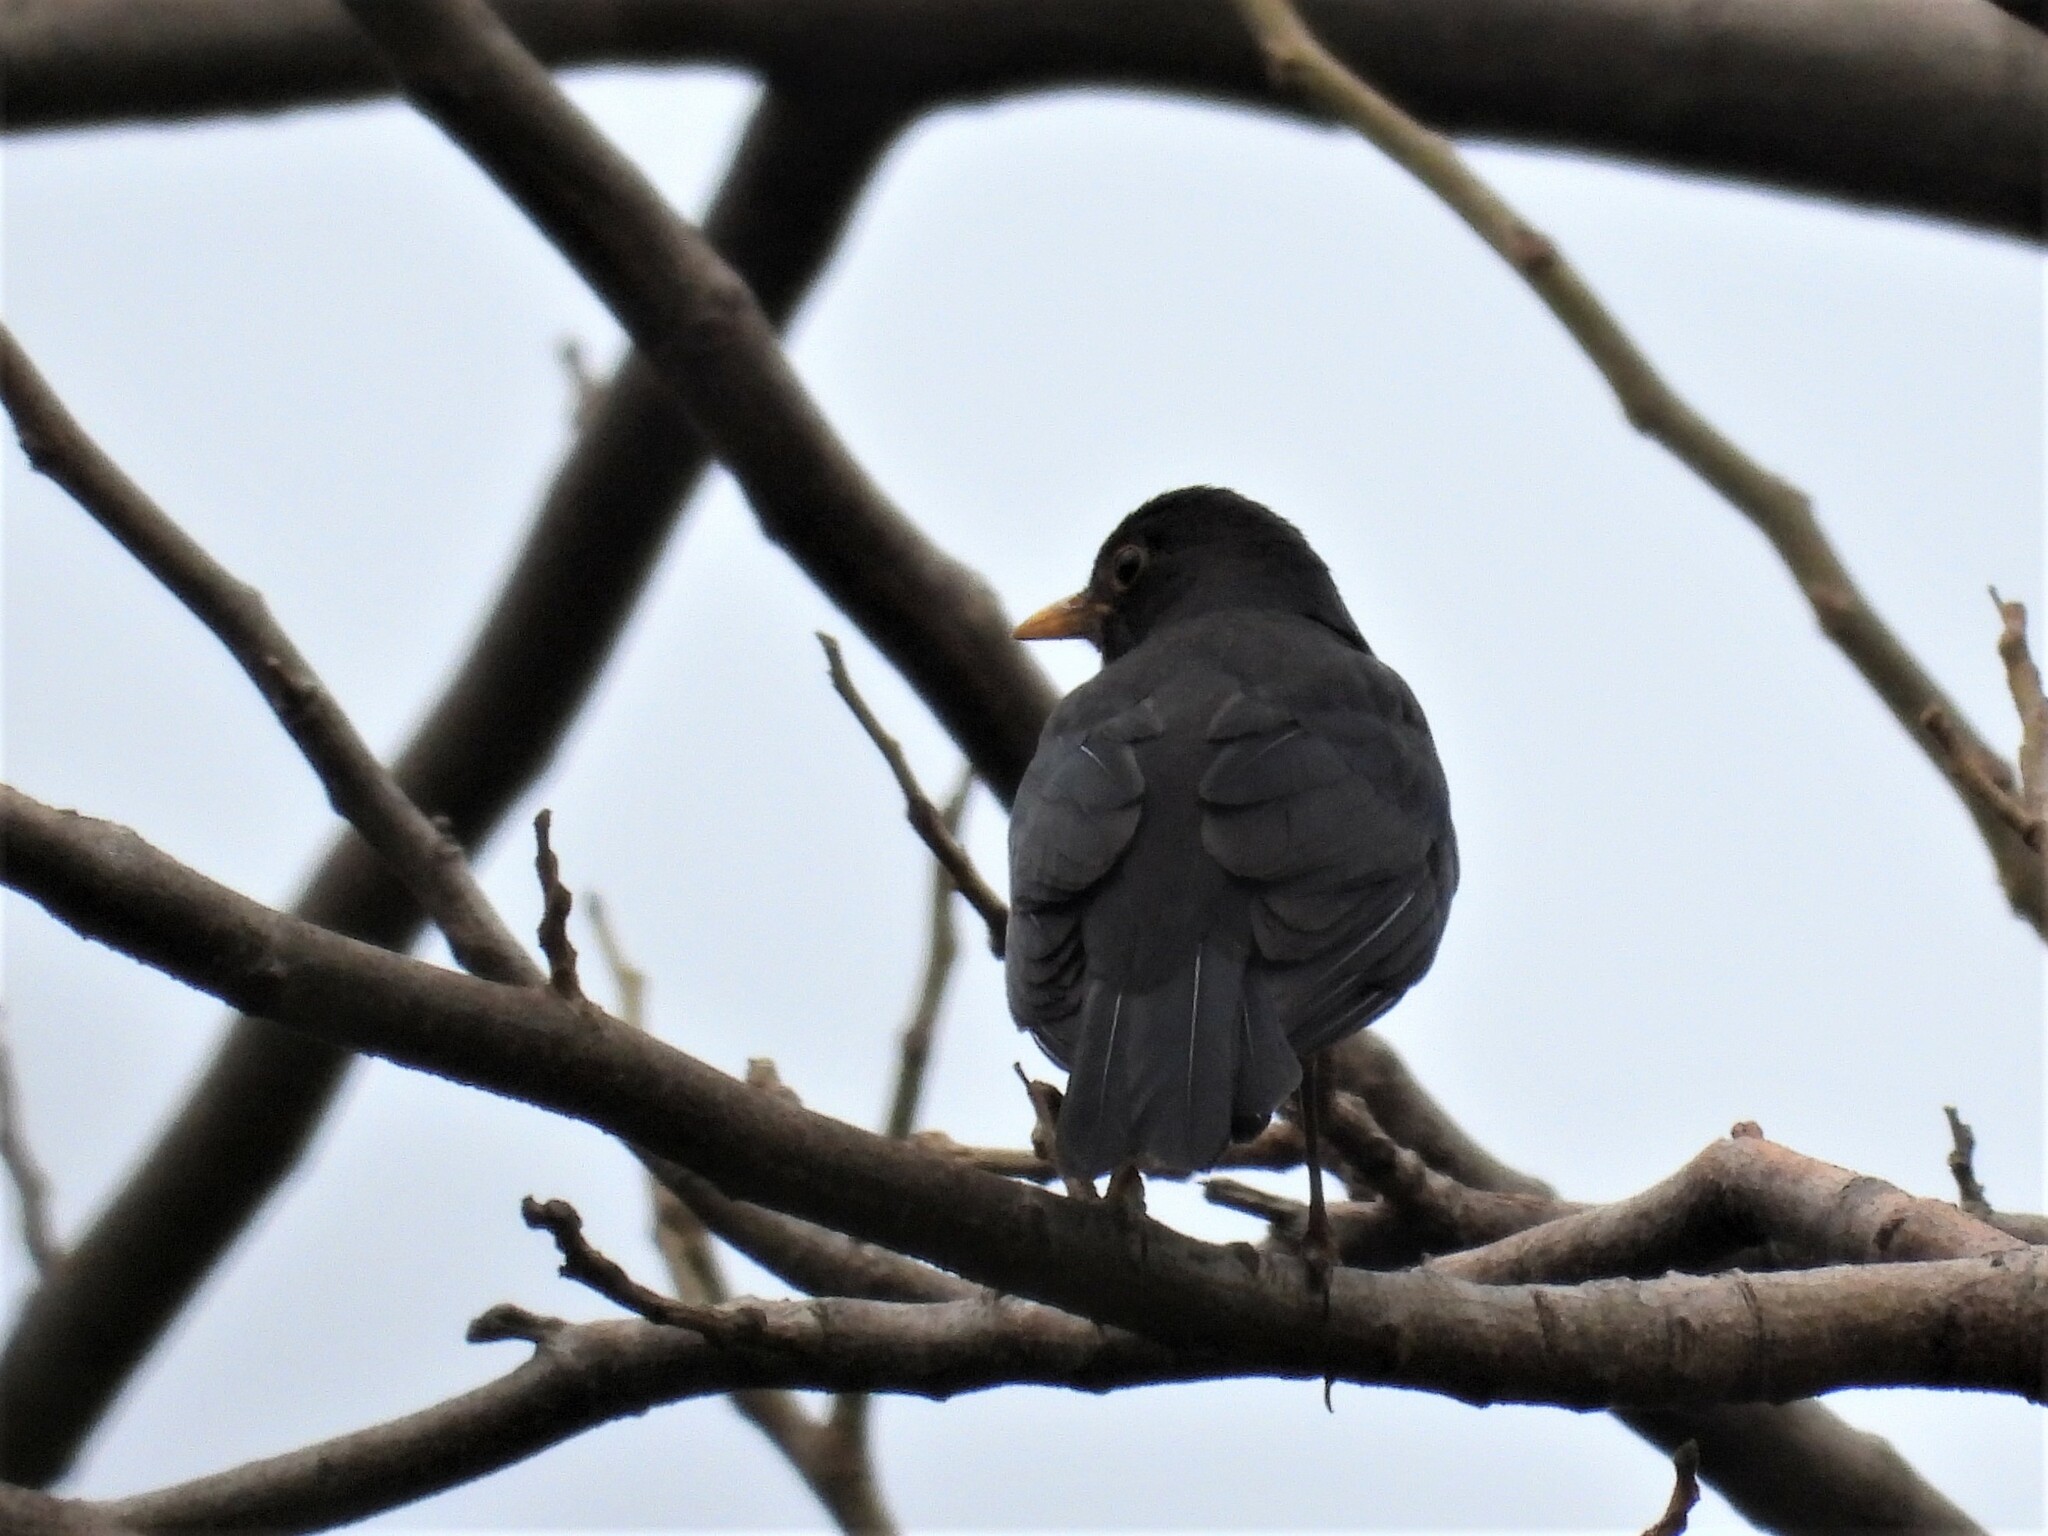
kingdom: Animalia
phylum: Chordata
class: Aves
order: Passeriformes
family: Turdidae
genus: Turdus
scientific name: Turdus mandarinus
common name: Chinese blackbird
